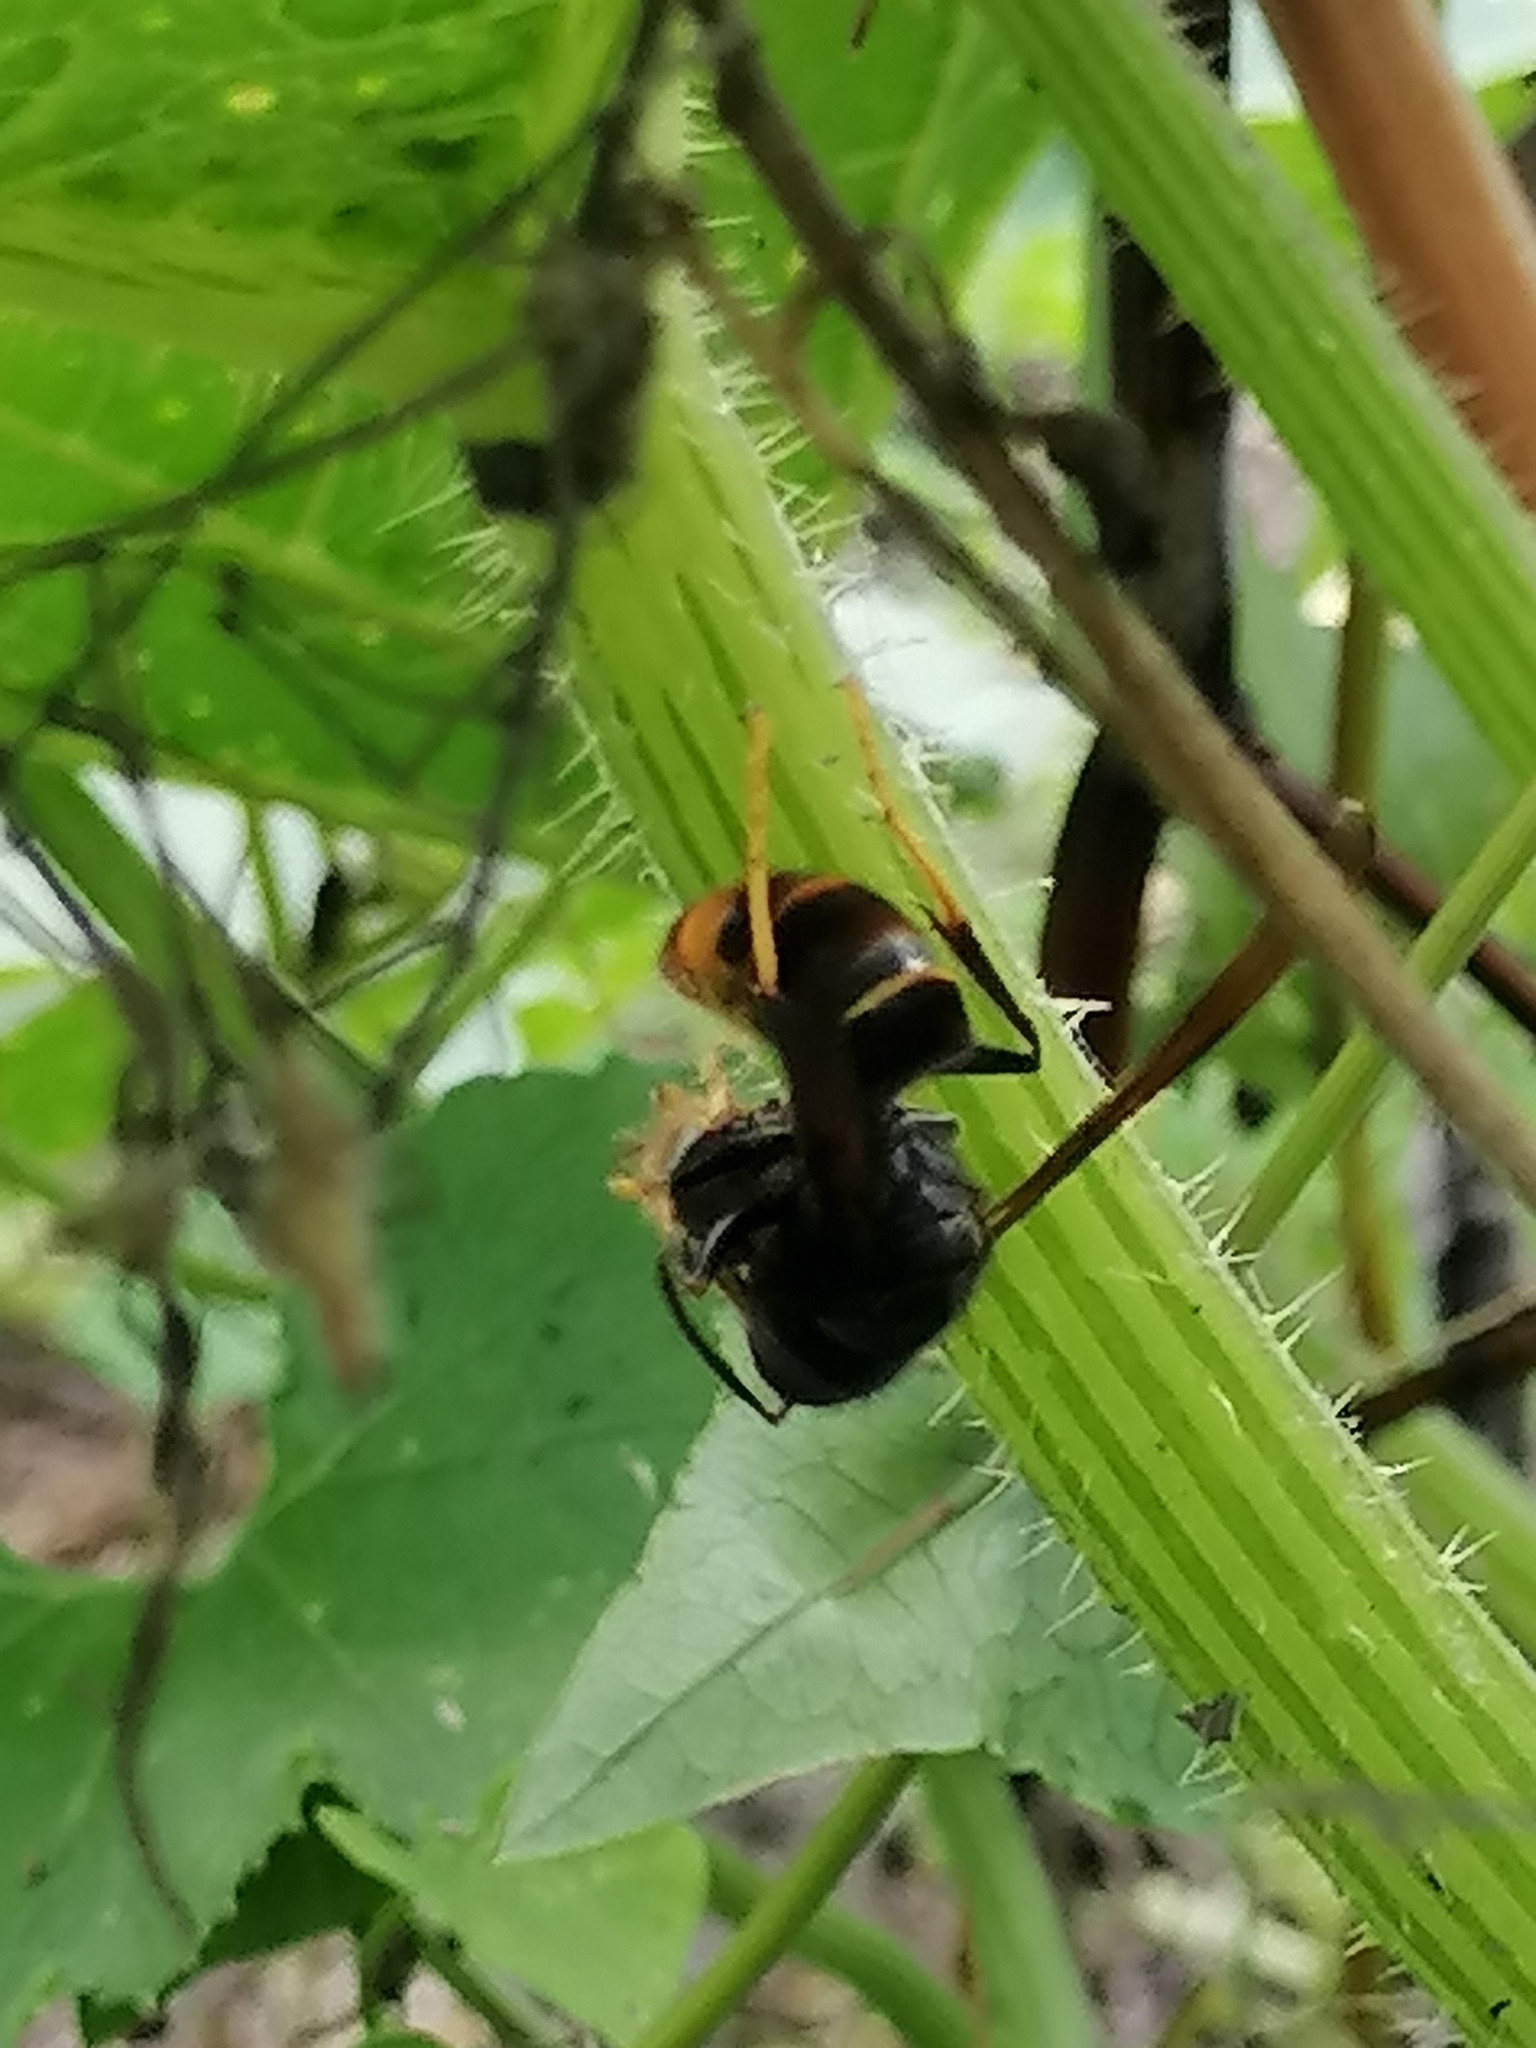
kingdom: Animalia
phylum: Arthropoda
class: Insecta
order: Hymenoptera
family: Vespidae
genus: Vespa
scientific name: Vespa velutina
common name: Asian hornet
